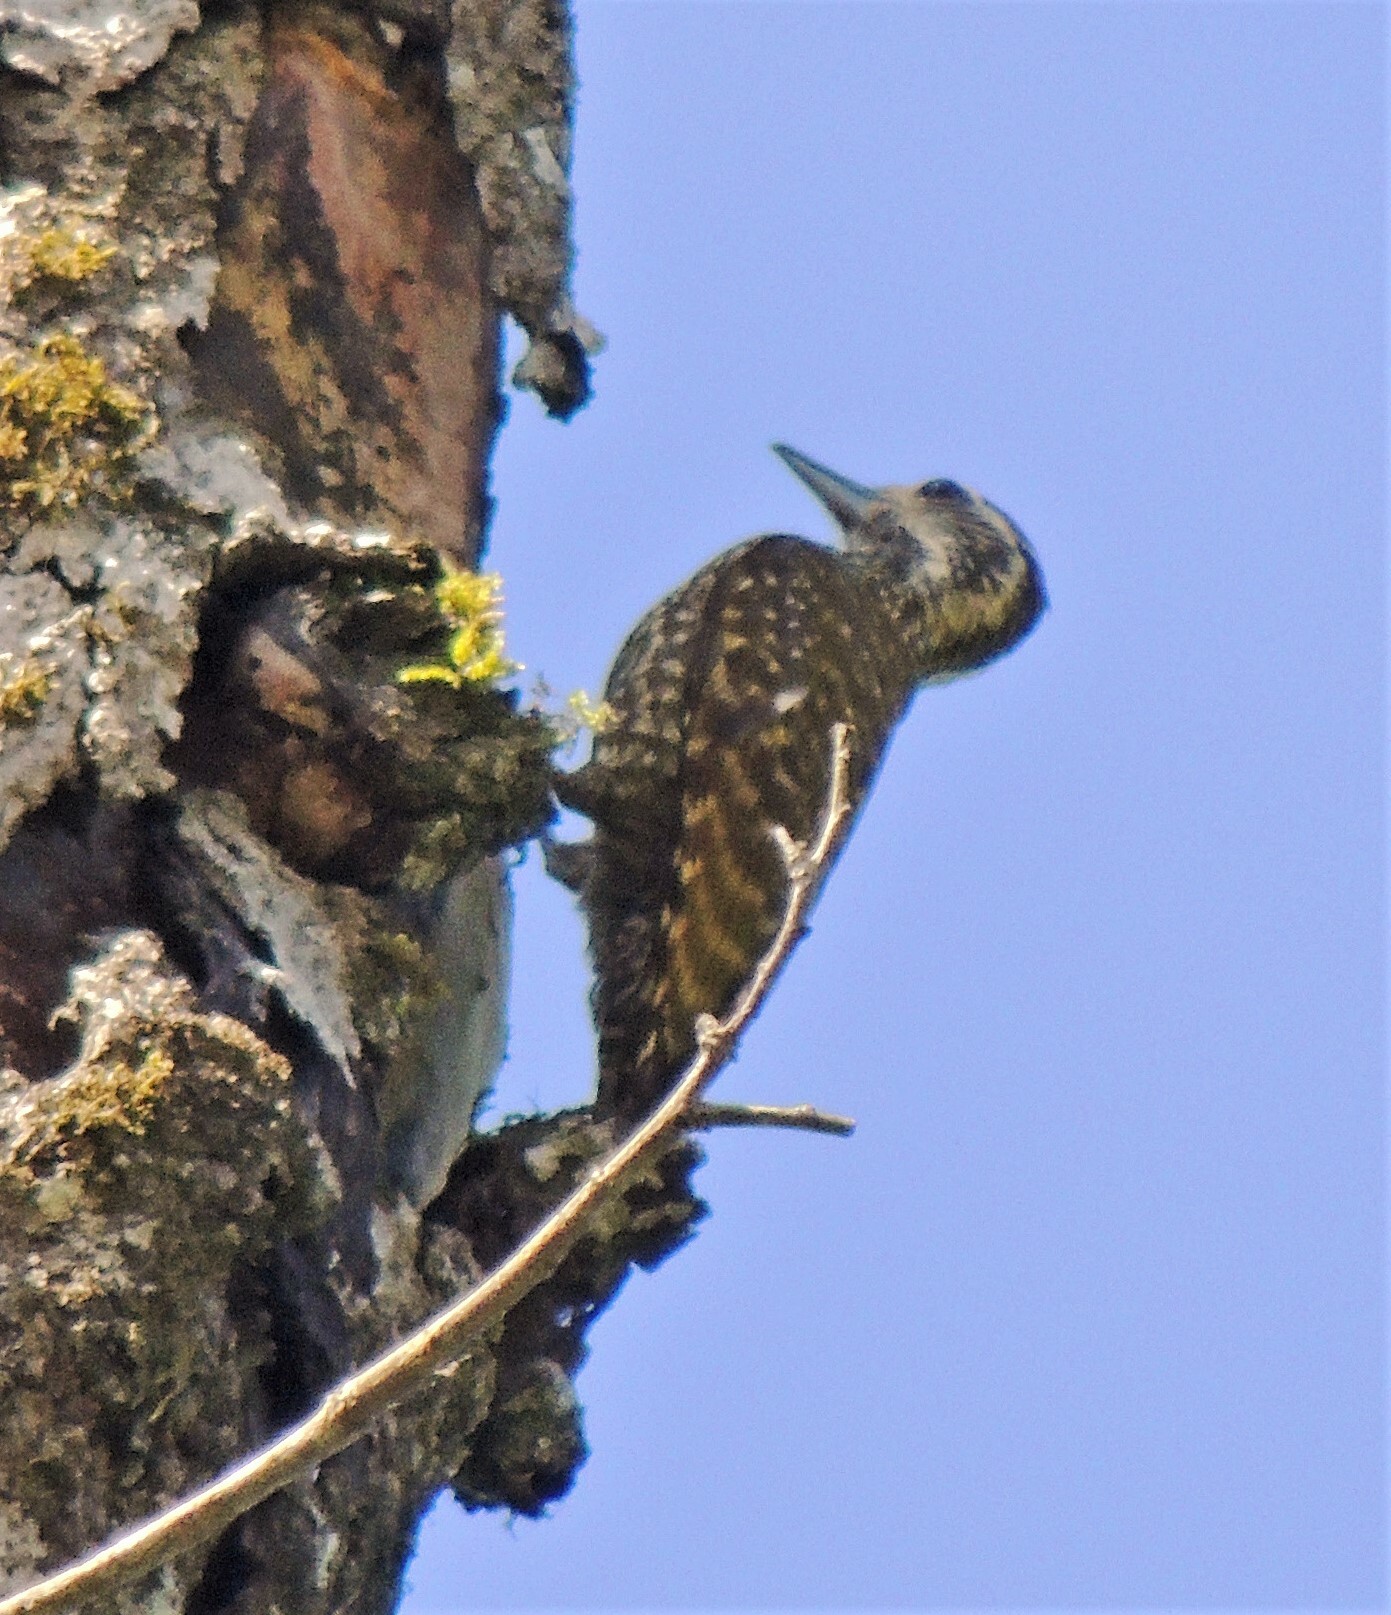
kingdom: Animalia
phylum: Chordata
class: Aves
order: Piciformes
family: Picidae
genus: Veniliornis
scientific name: Veniliornis spilogaster
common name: White-spotted woodpecker
